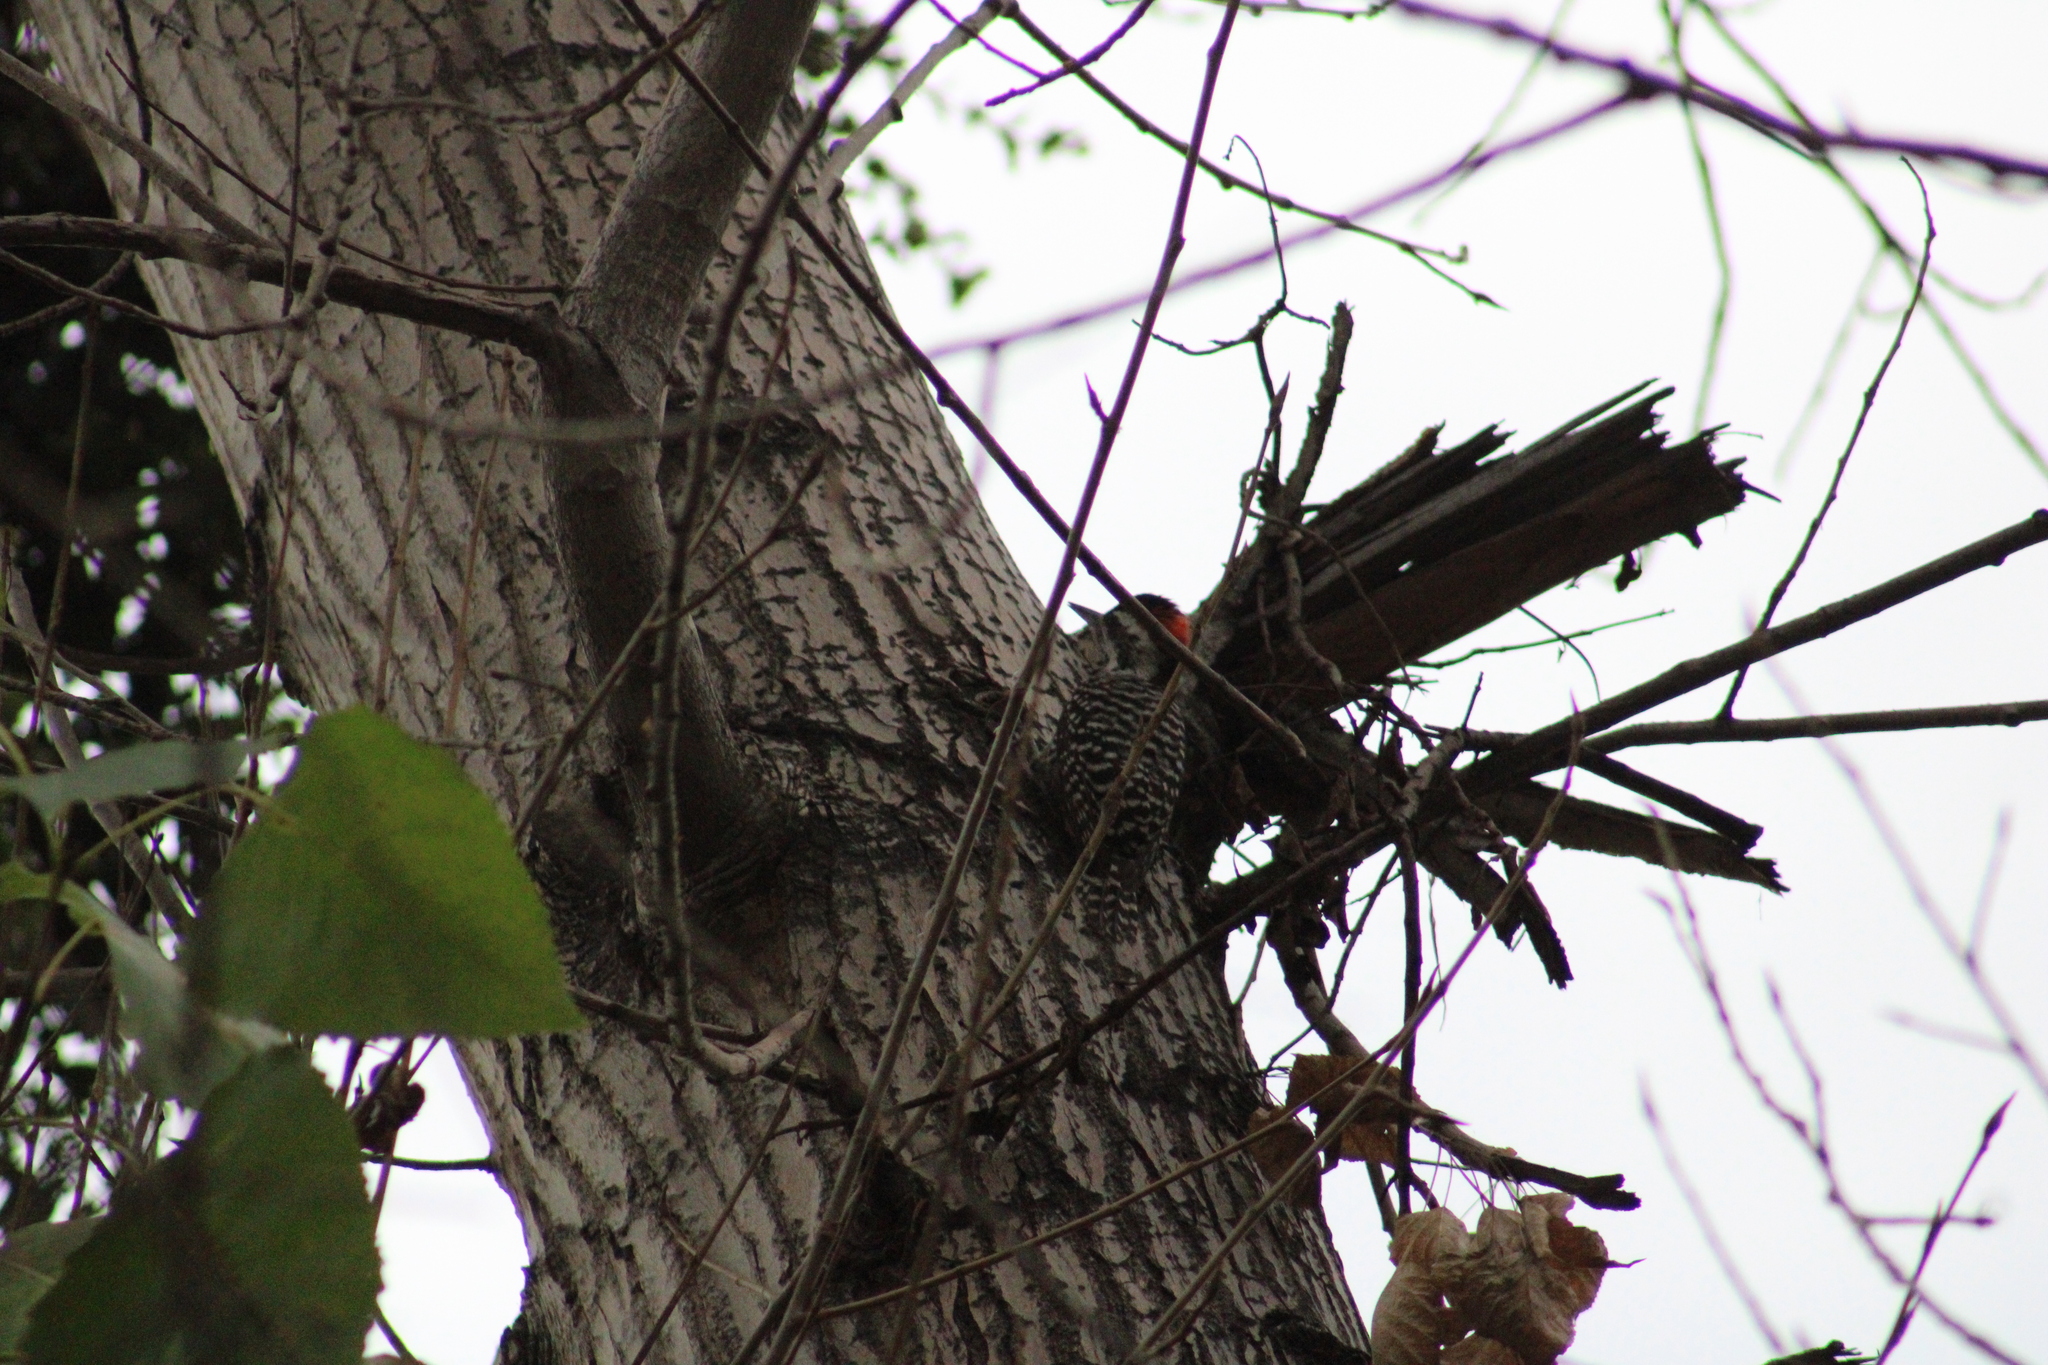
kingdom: Animalia
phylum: Chordata
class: Aves
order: Piciformes
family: Picidae
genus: Veniliornis
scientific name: Veniliornis lignarius
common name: Striped woodpecker
